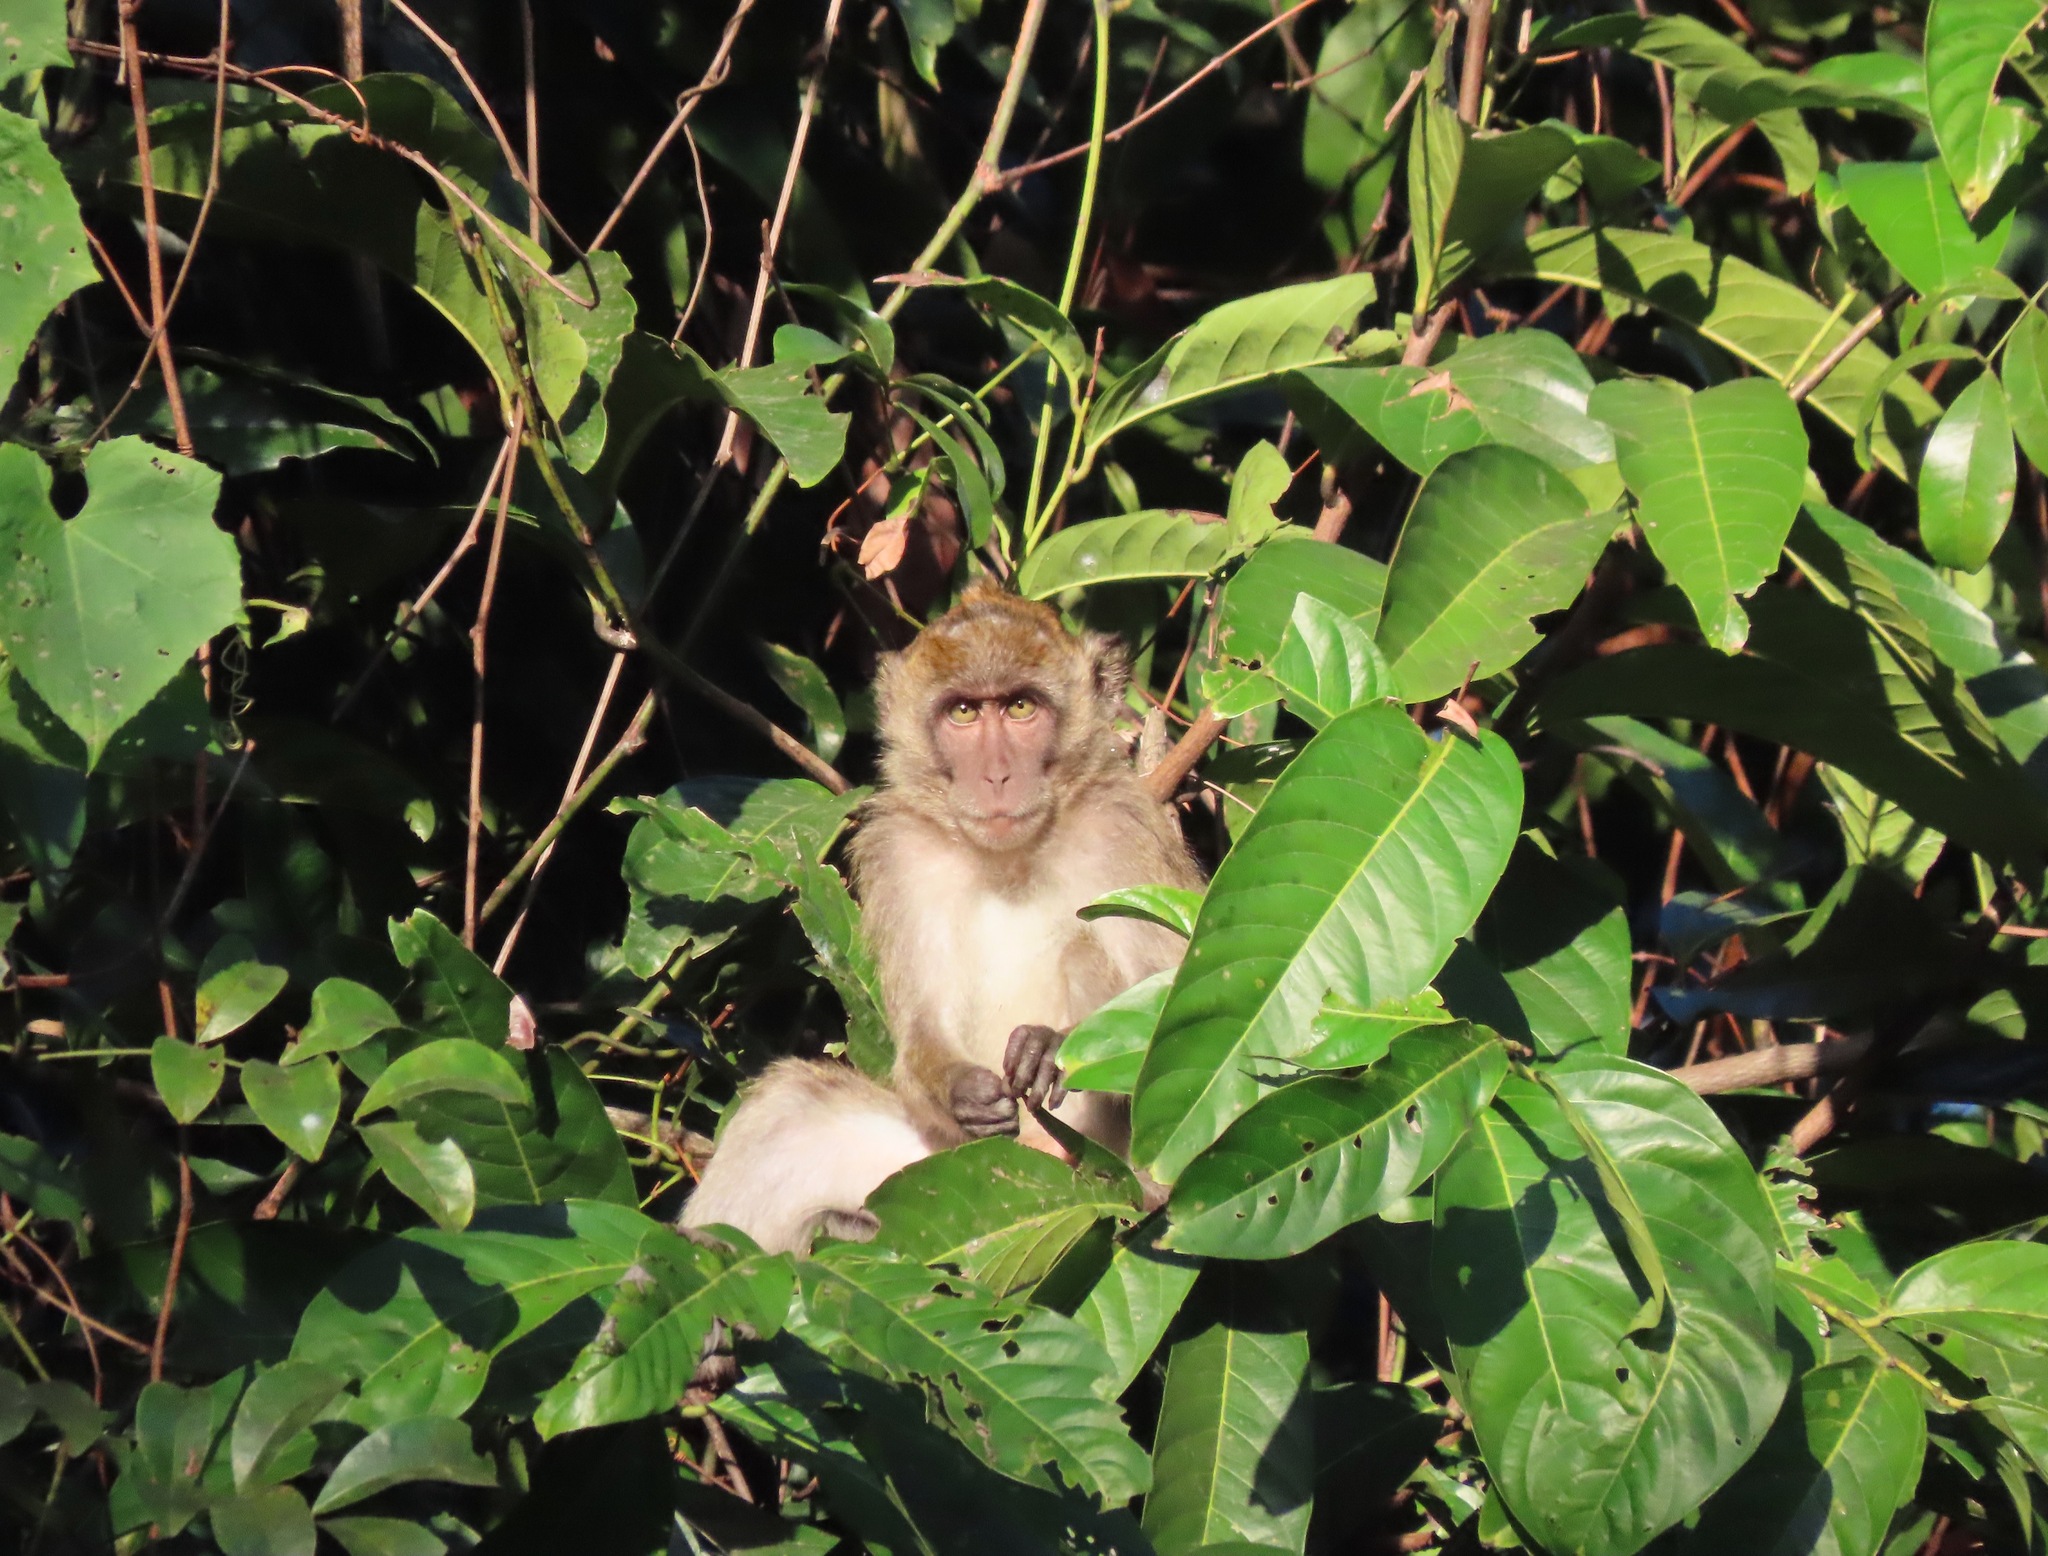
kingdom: Animalia
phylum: Chordata
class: Mammalia
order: Primates
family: Cercopithecidae
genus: Macaca
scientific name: Macaca fascicularis
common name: Crab-eating macaque
